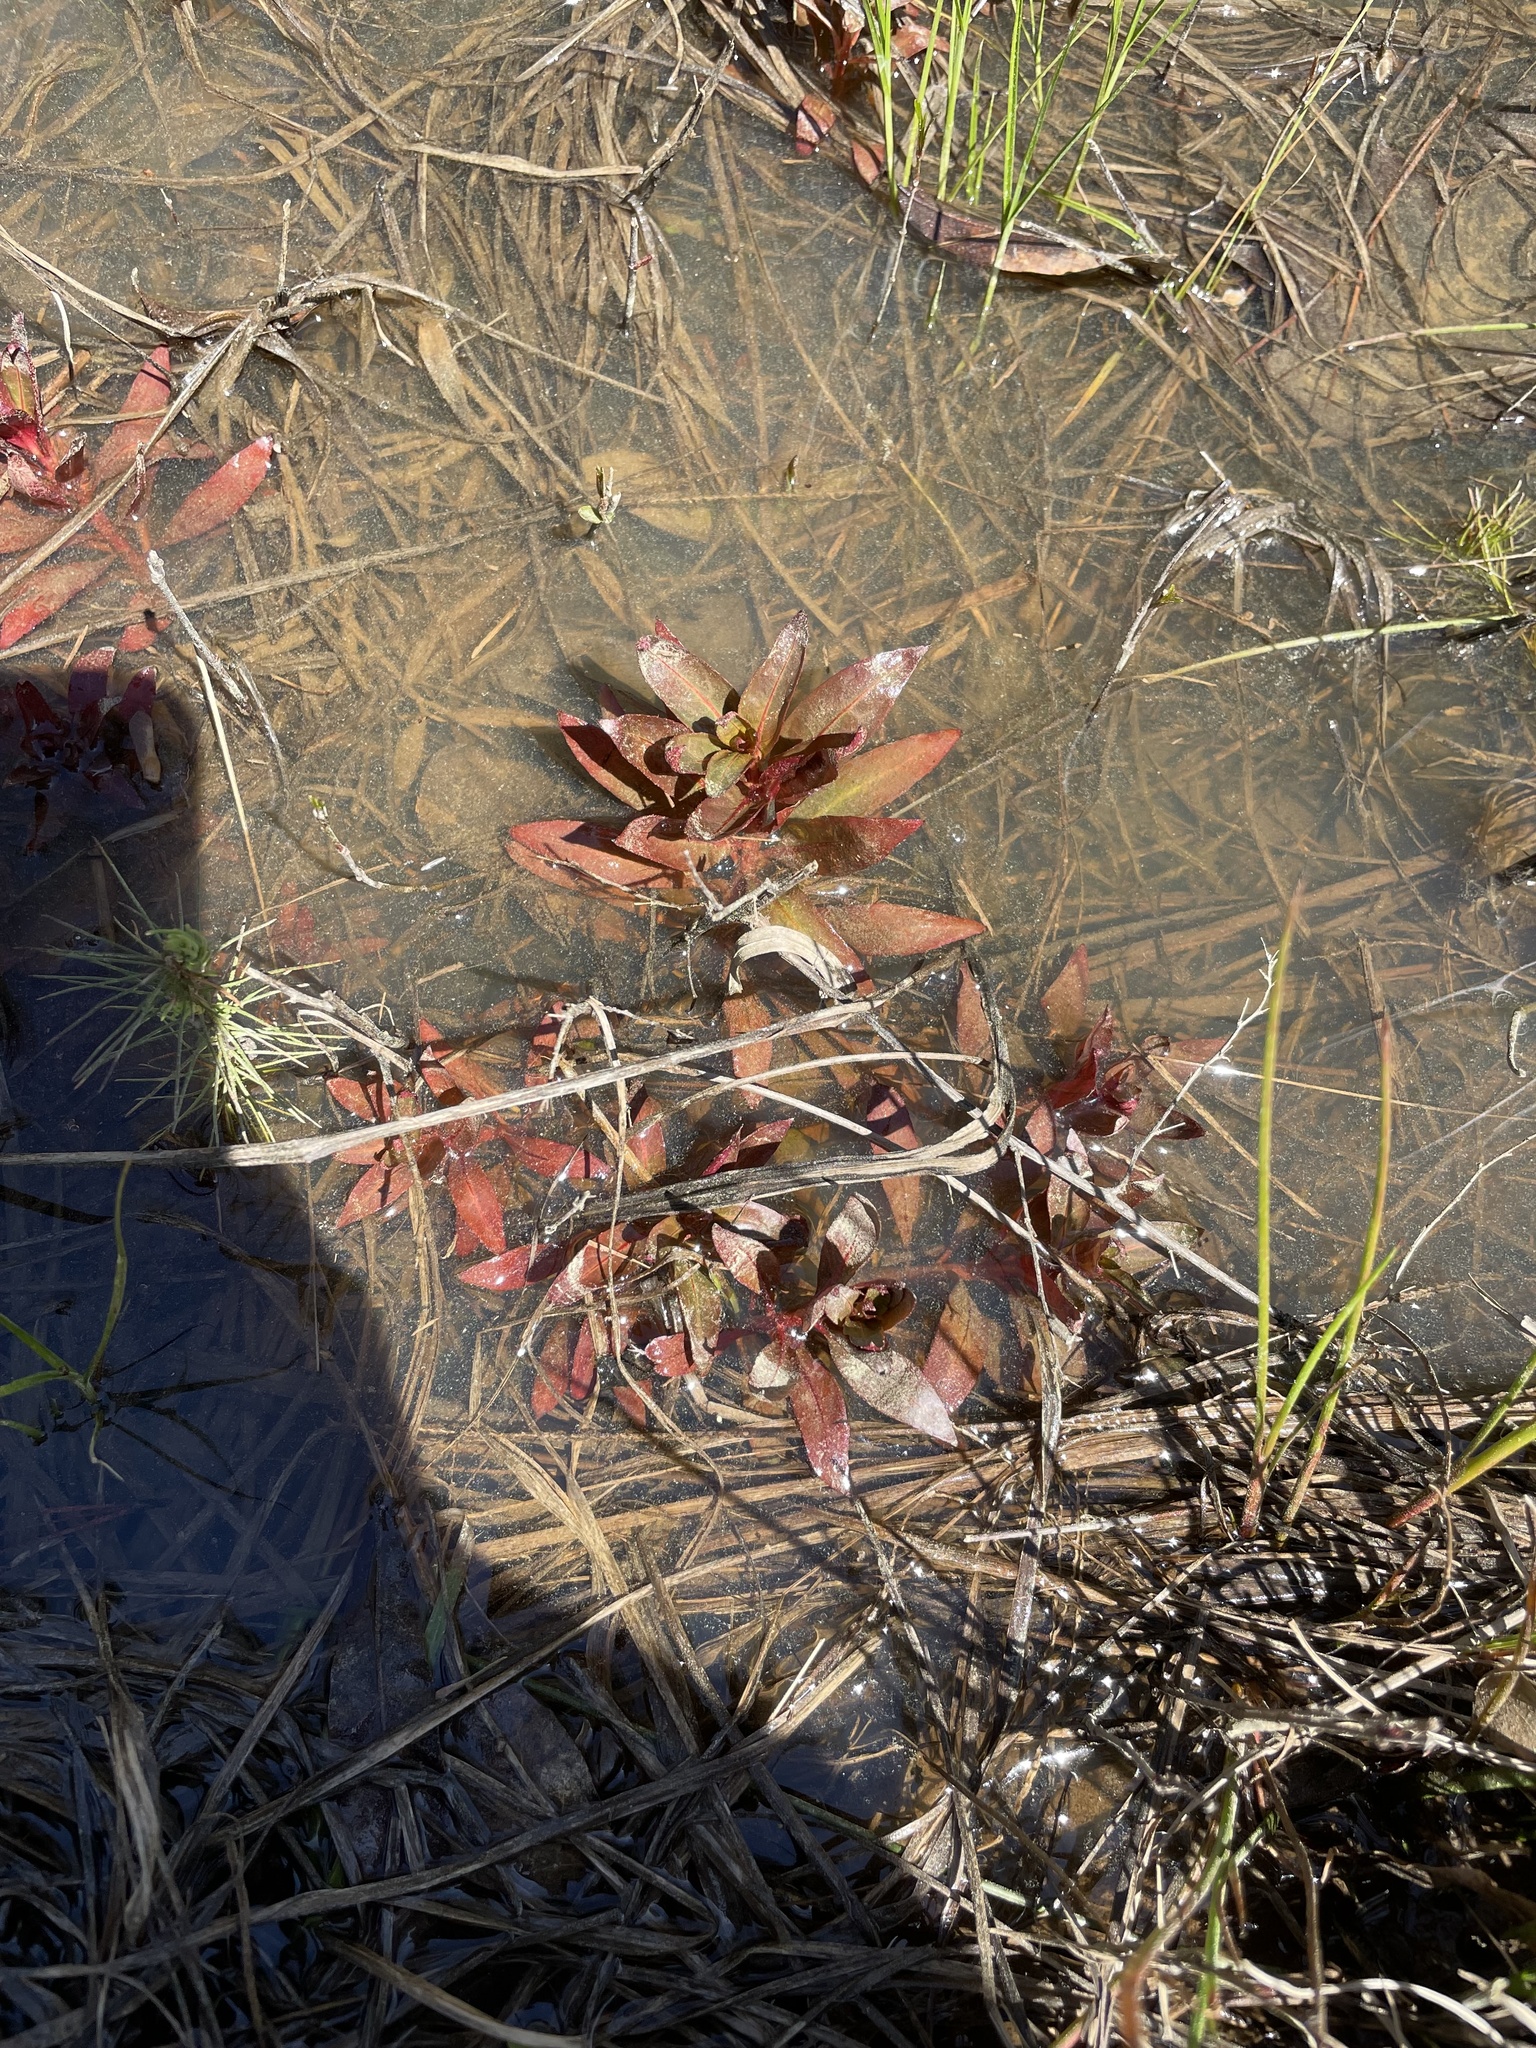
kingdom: Plantae
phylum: Tracheophyta
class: Magnoliopsida
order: Myrtales
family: Onagraceae
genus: Ludwigia
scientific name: Ludwigia palustris
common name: Hampshire-purslane
